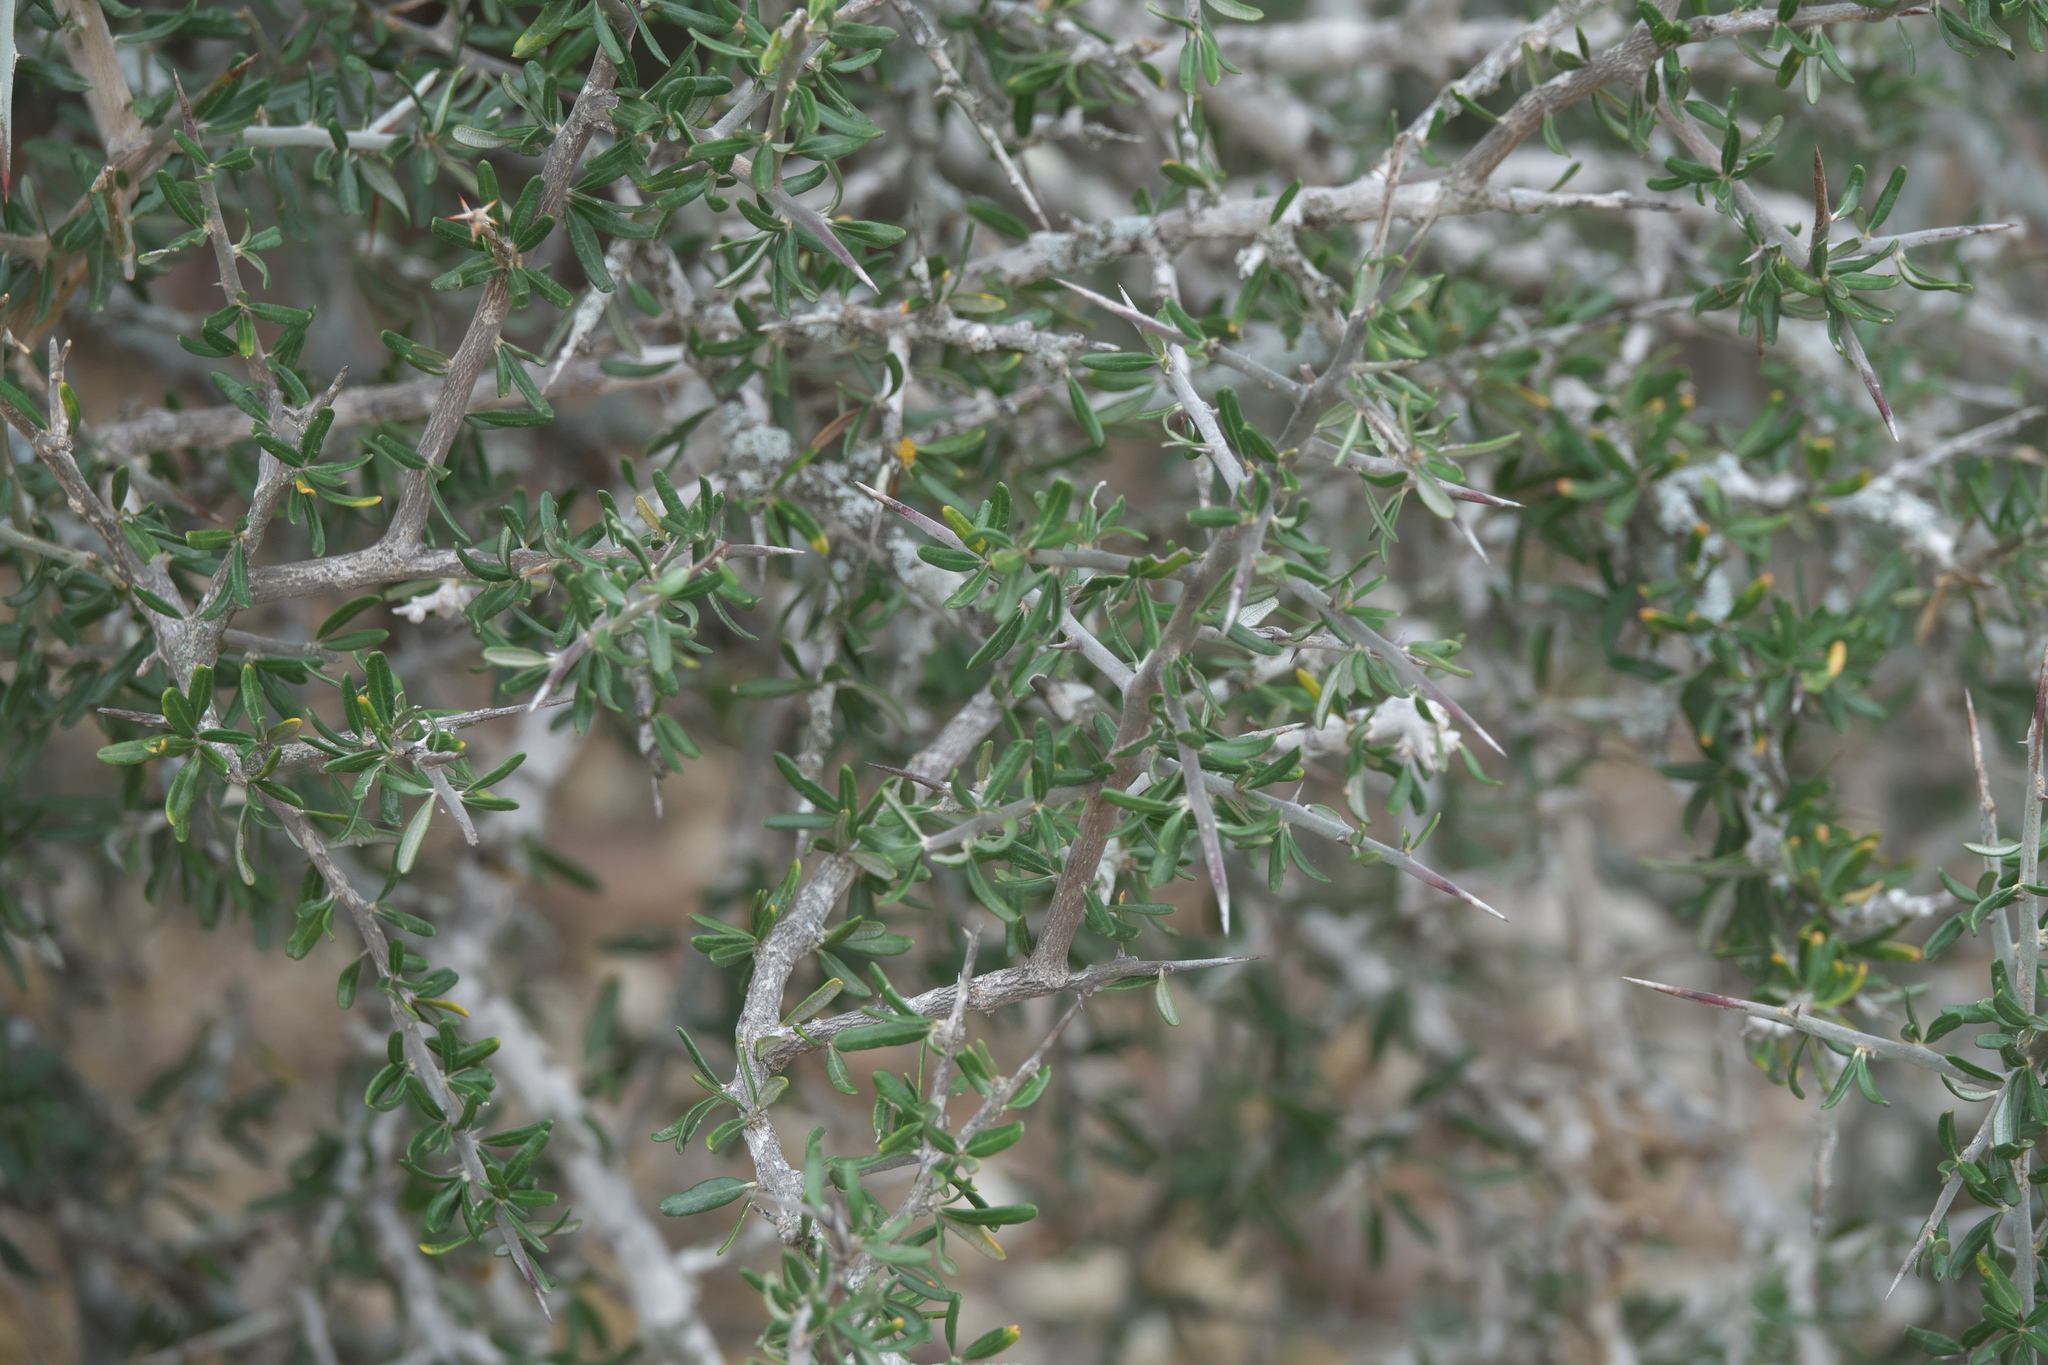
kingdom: Plantae
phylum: Tracheophyta
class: Magnoliopsida
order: Sapindales
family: Simaroubaceae
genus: Castela
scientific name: Castela erecta
